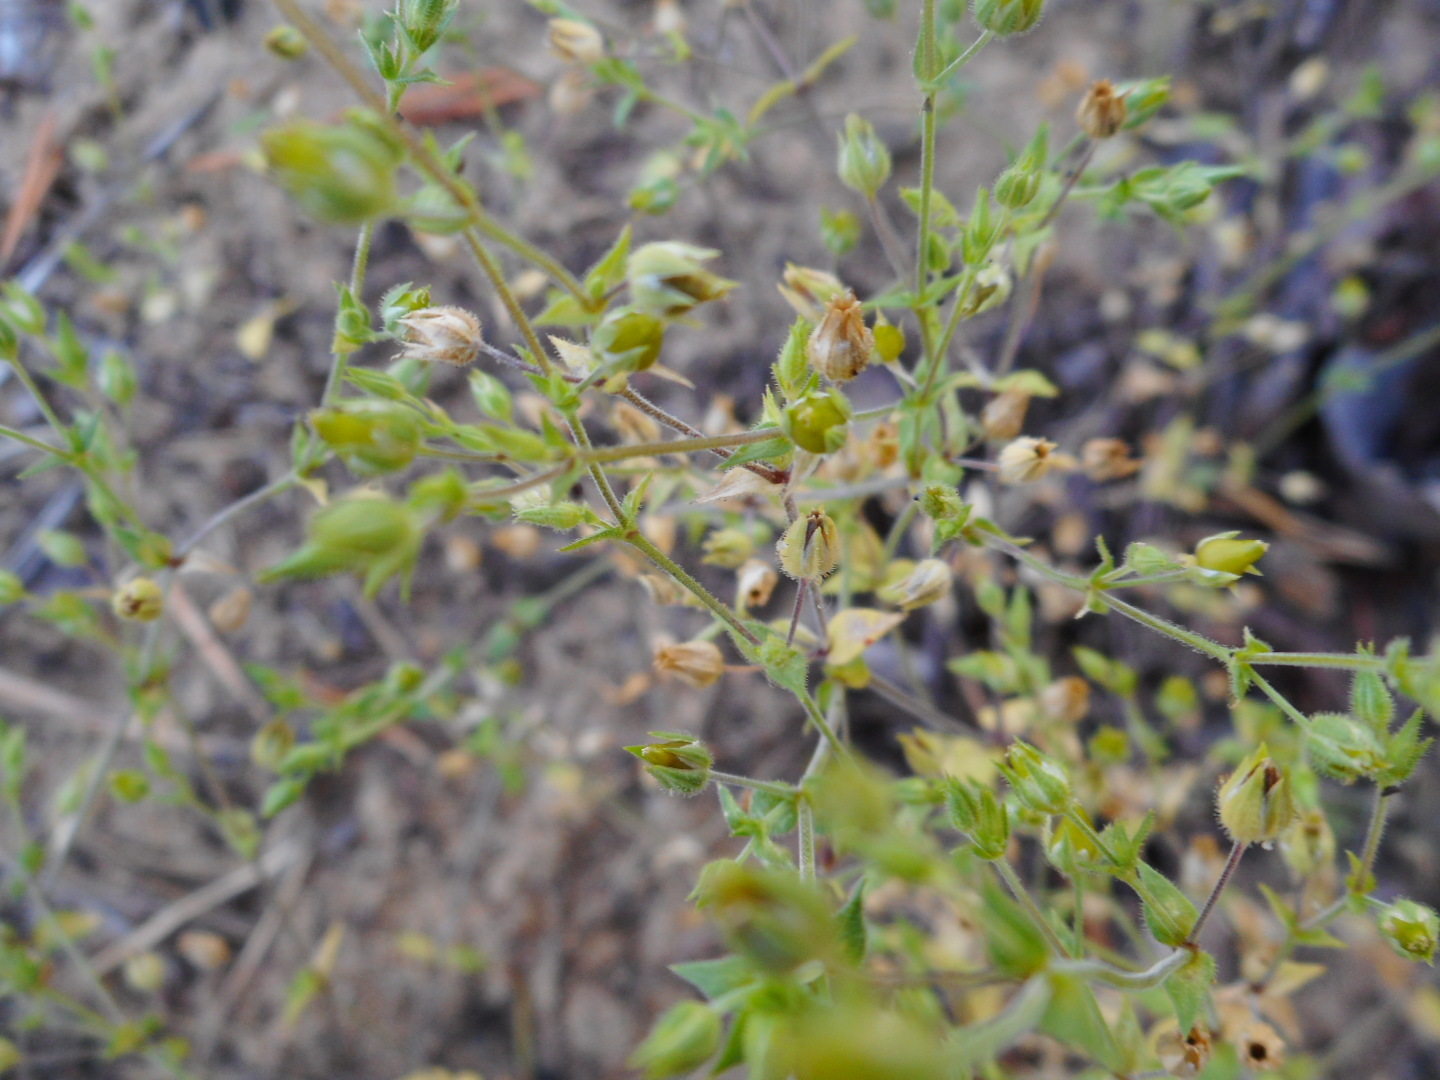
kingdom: Plantae
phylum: Tracheophyta
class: Magnoliopsida
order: Caryophyllales
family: Caryophyllaceae
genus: Arenaria
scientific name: Arenaria serpyllifolia
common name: Thyme-leaved sandwort
